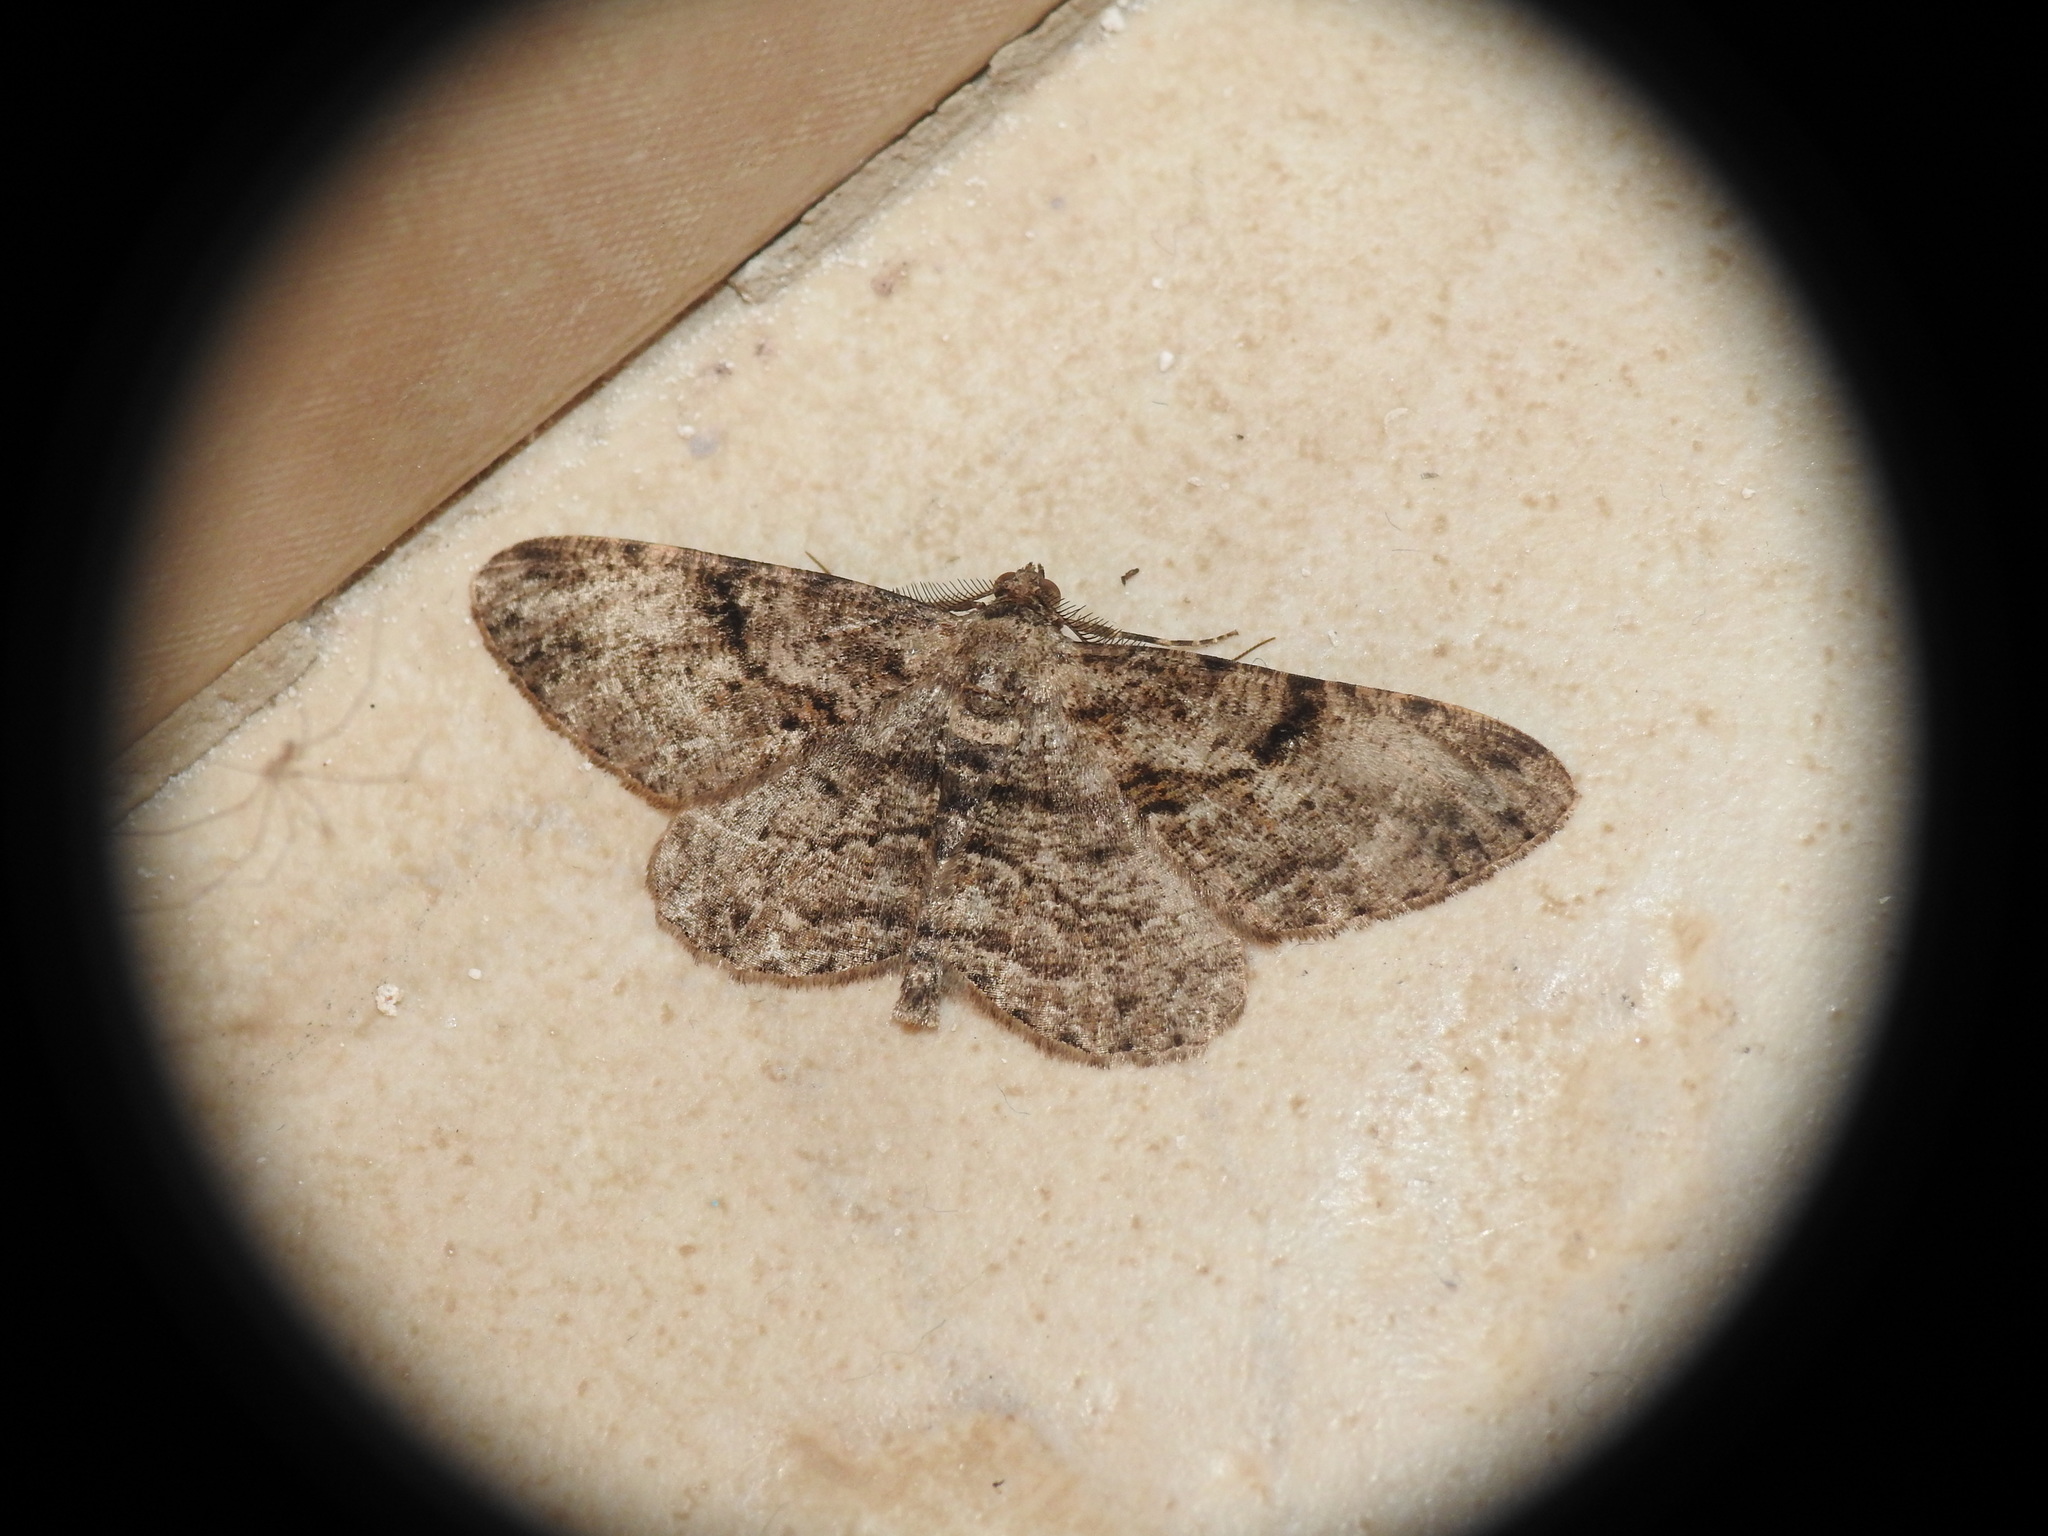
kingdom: Animalia
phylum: Arthropoda
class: Insecta
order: Lepidoptera
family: Geometridae
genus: Peribatodes
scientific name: Peribatodes rhomboidaria
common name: Willow beauty
